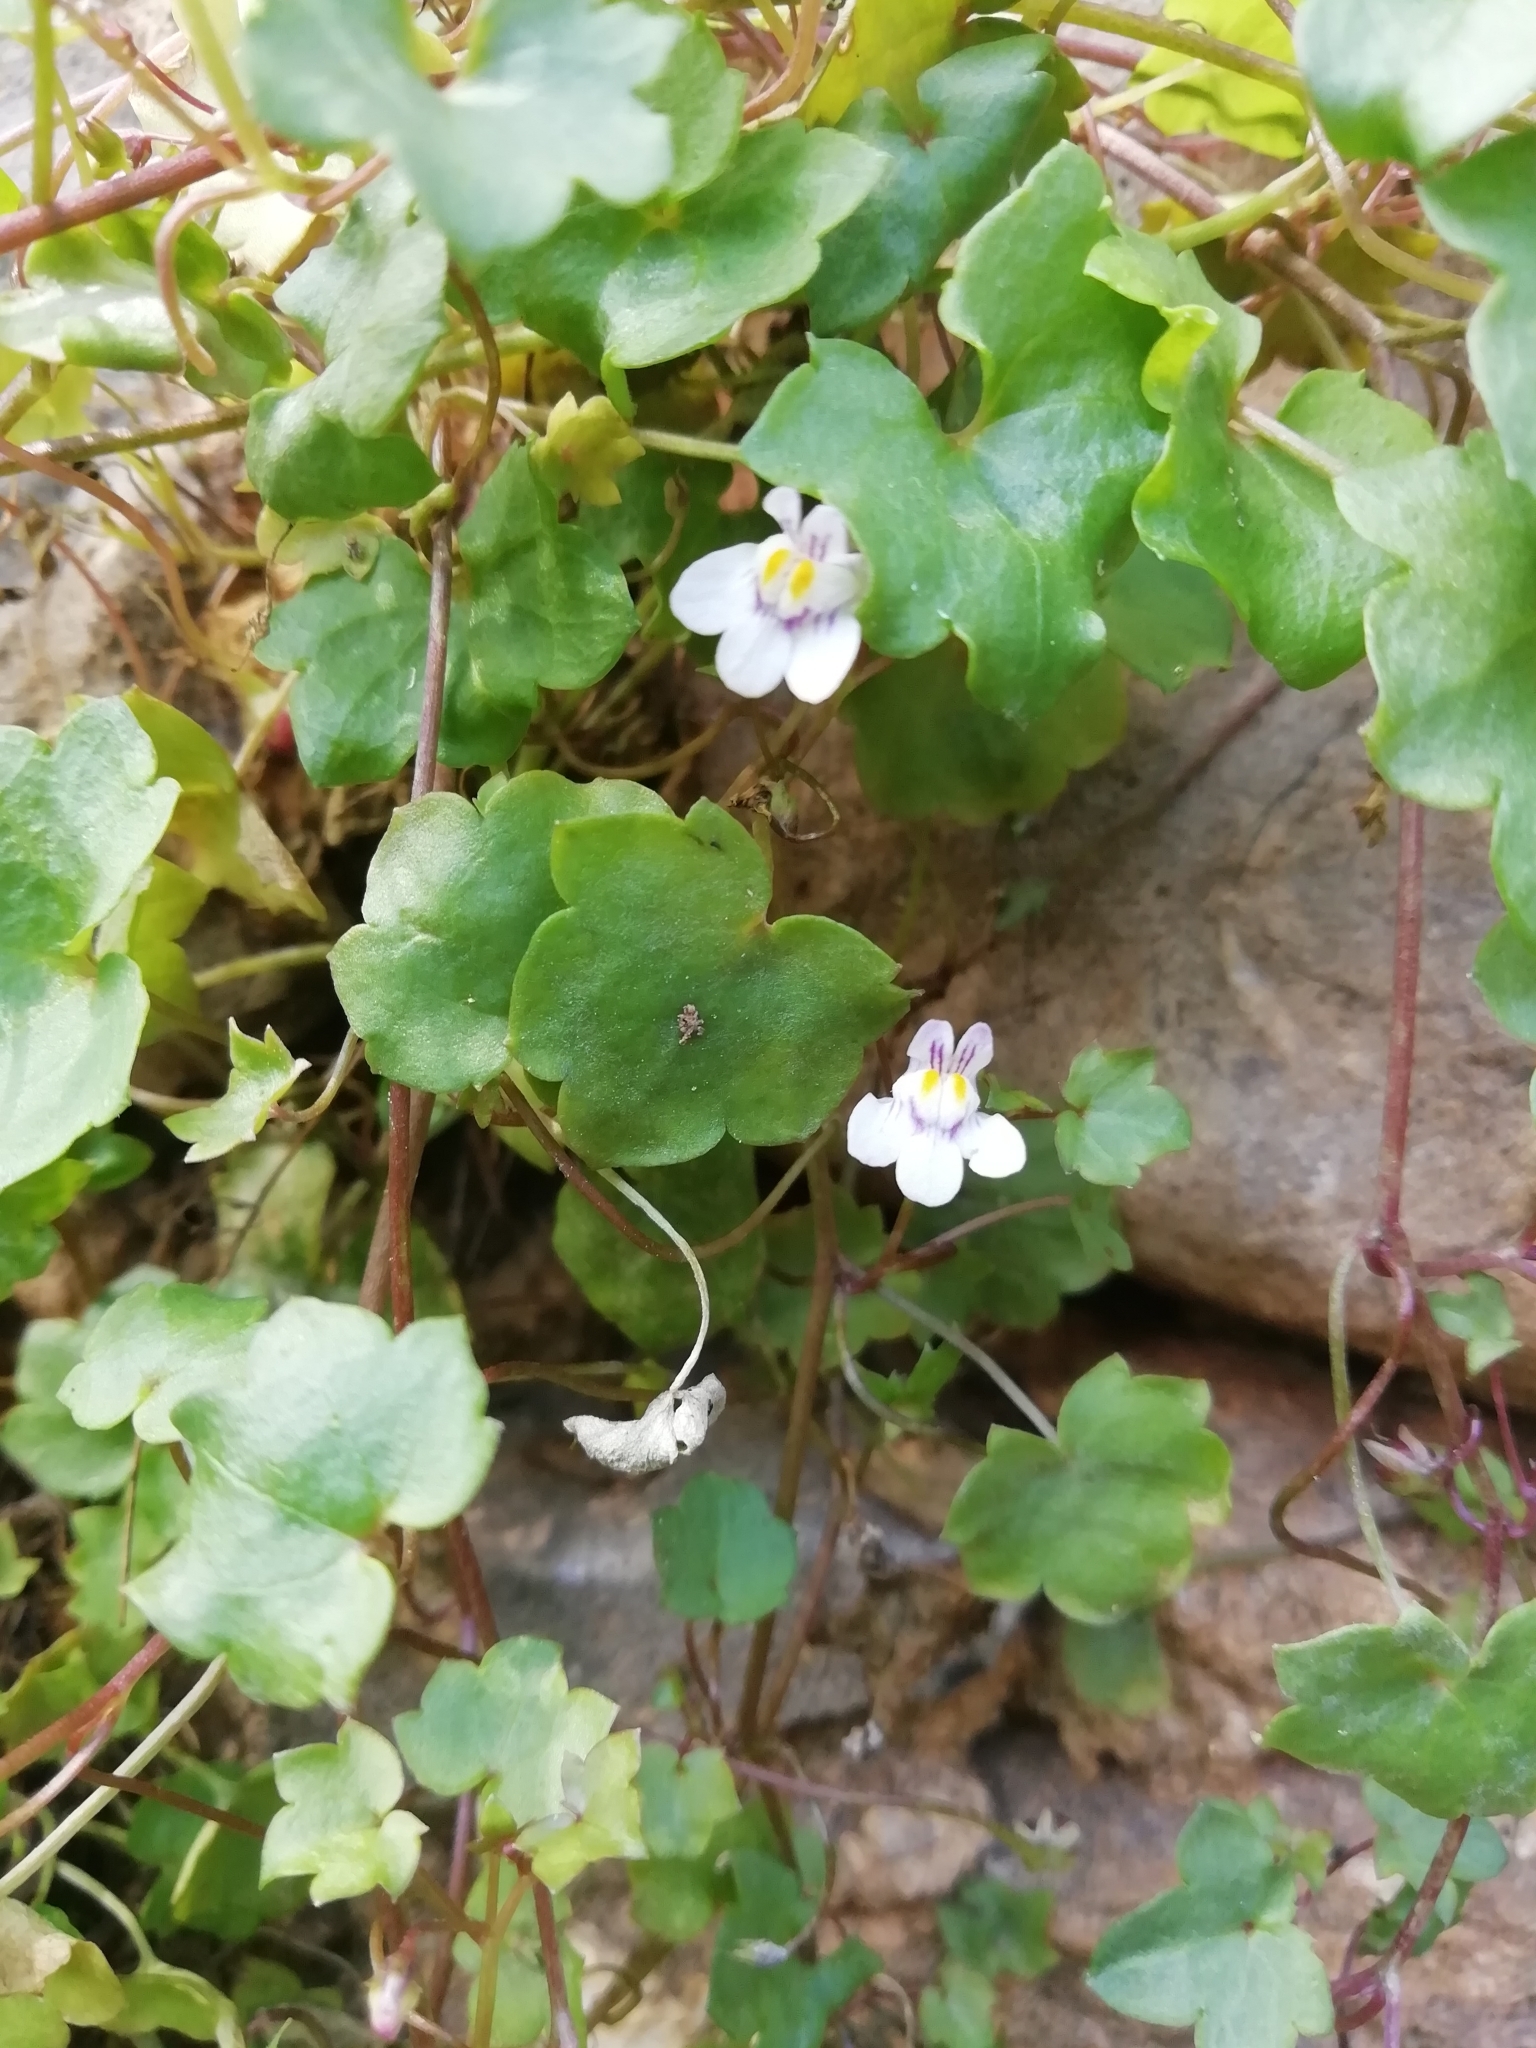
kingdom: Plantae
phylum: Tracheophyta
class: Magnoliopsida
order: Lamiales
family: Plantaginaceae
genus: Cymbalaria
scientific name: Cymbalaria muralis
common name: Ivy-leaved toadflax
